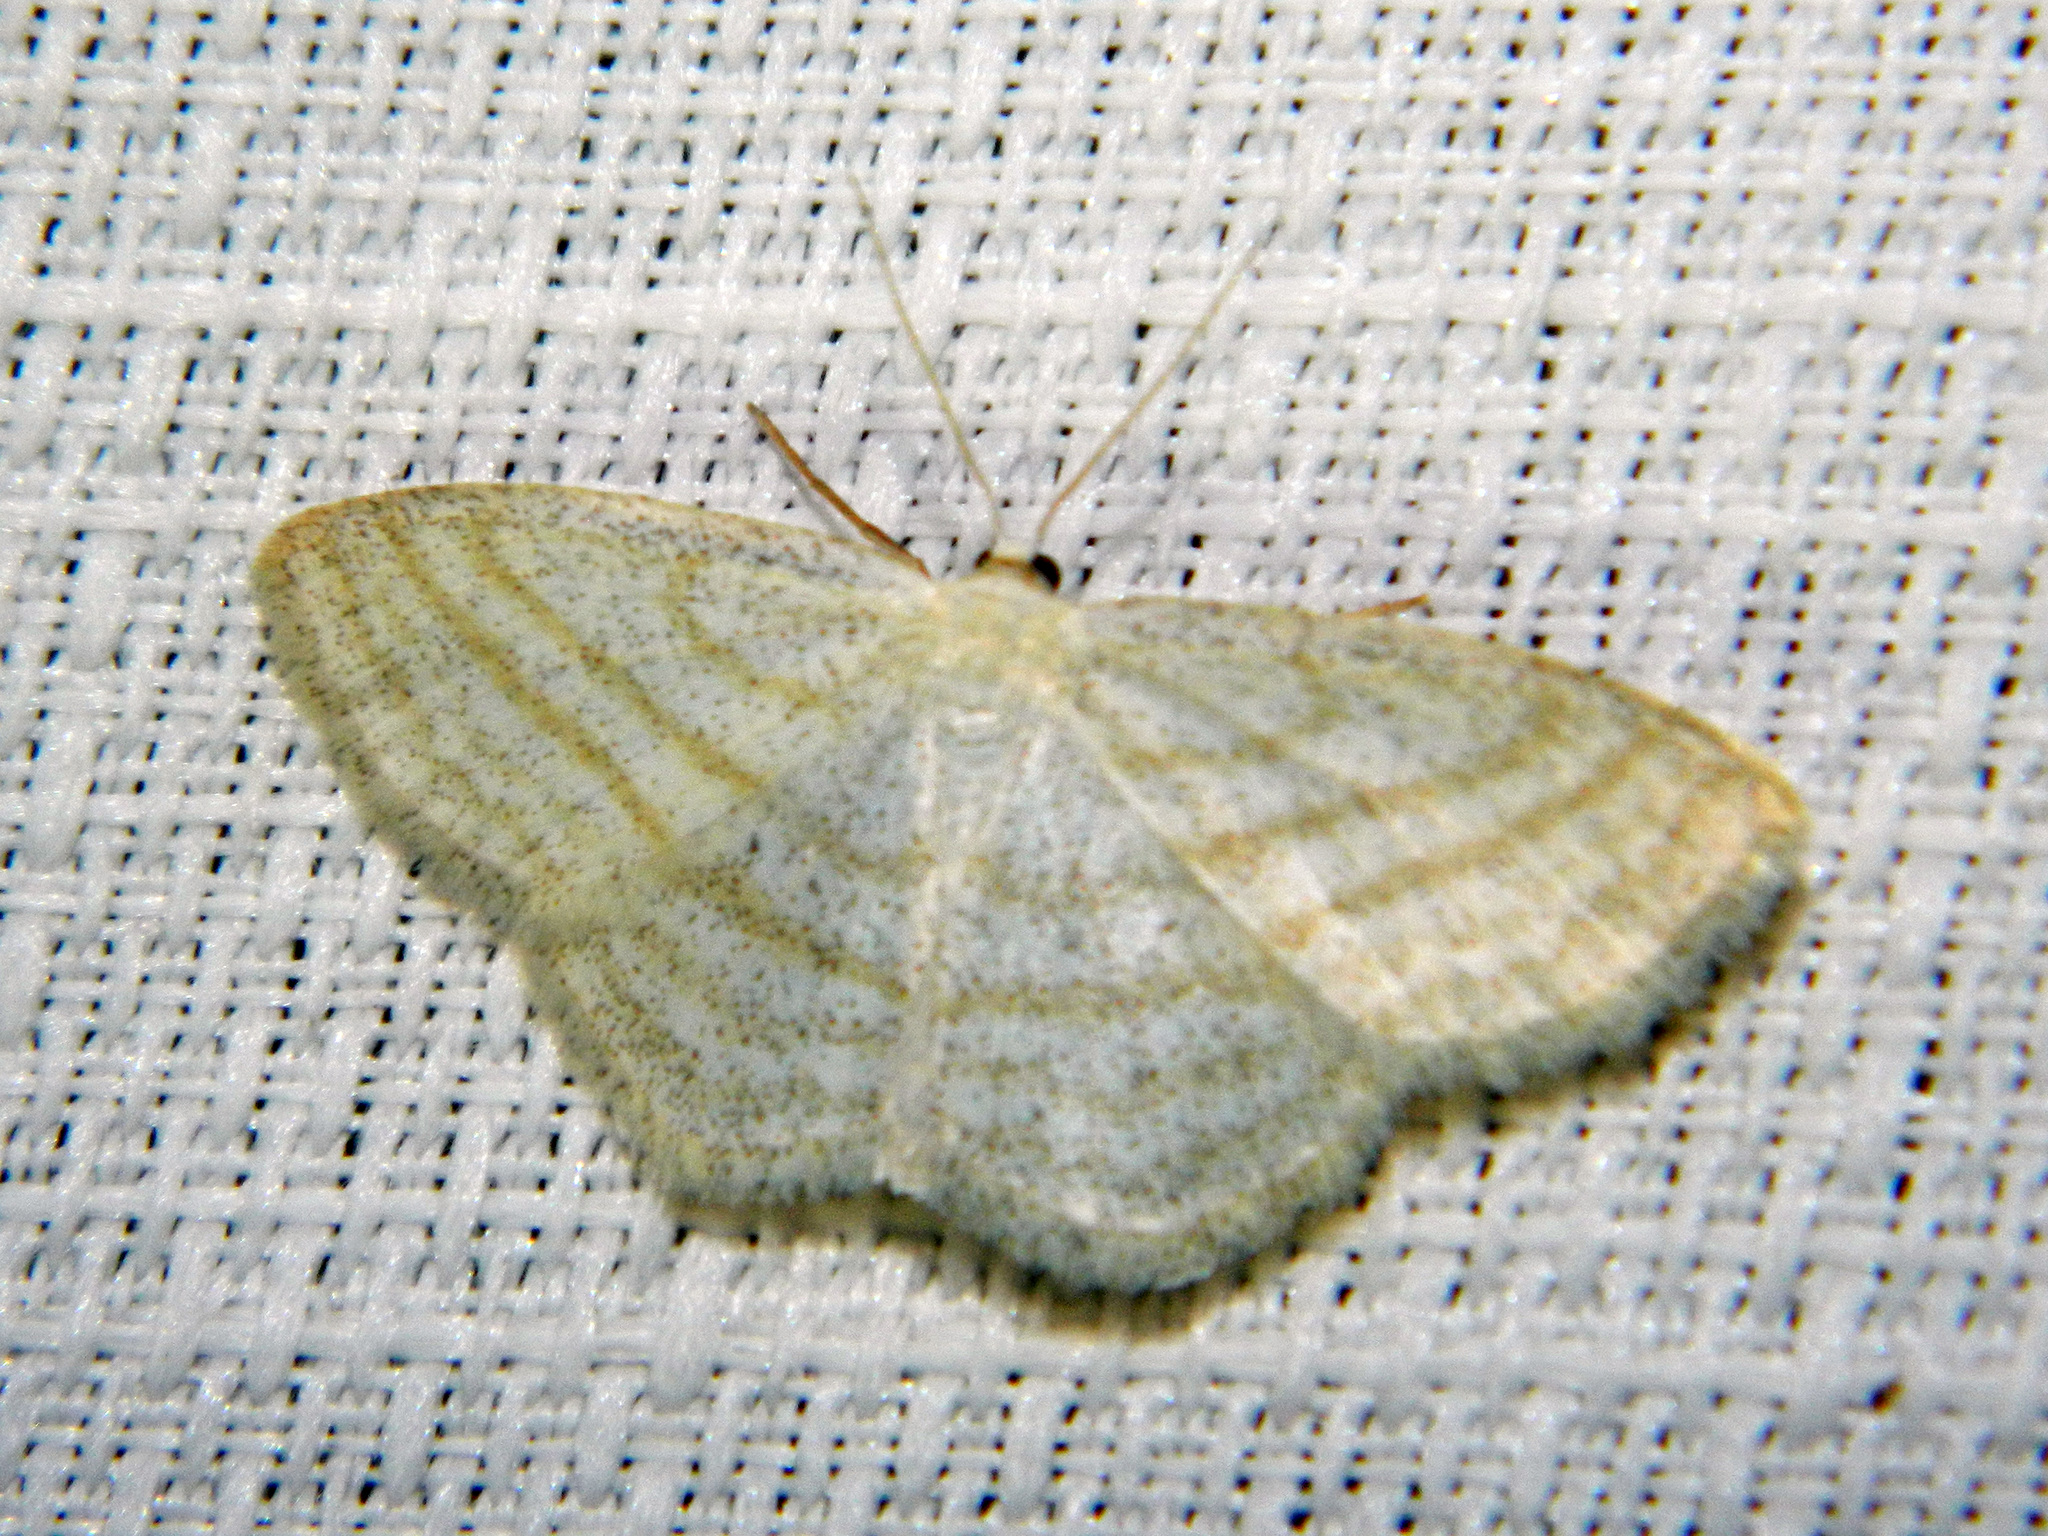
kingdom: Animalia
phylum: Arthropoda
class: Insecta
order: Lepidoptera
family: Geometridae
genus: Scopula
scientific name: Scopula quadrilineata
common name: Four-lined wave moth
